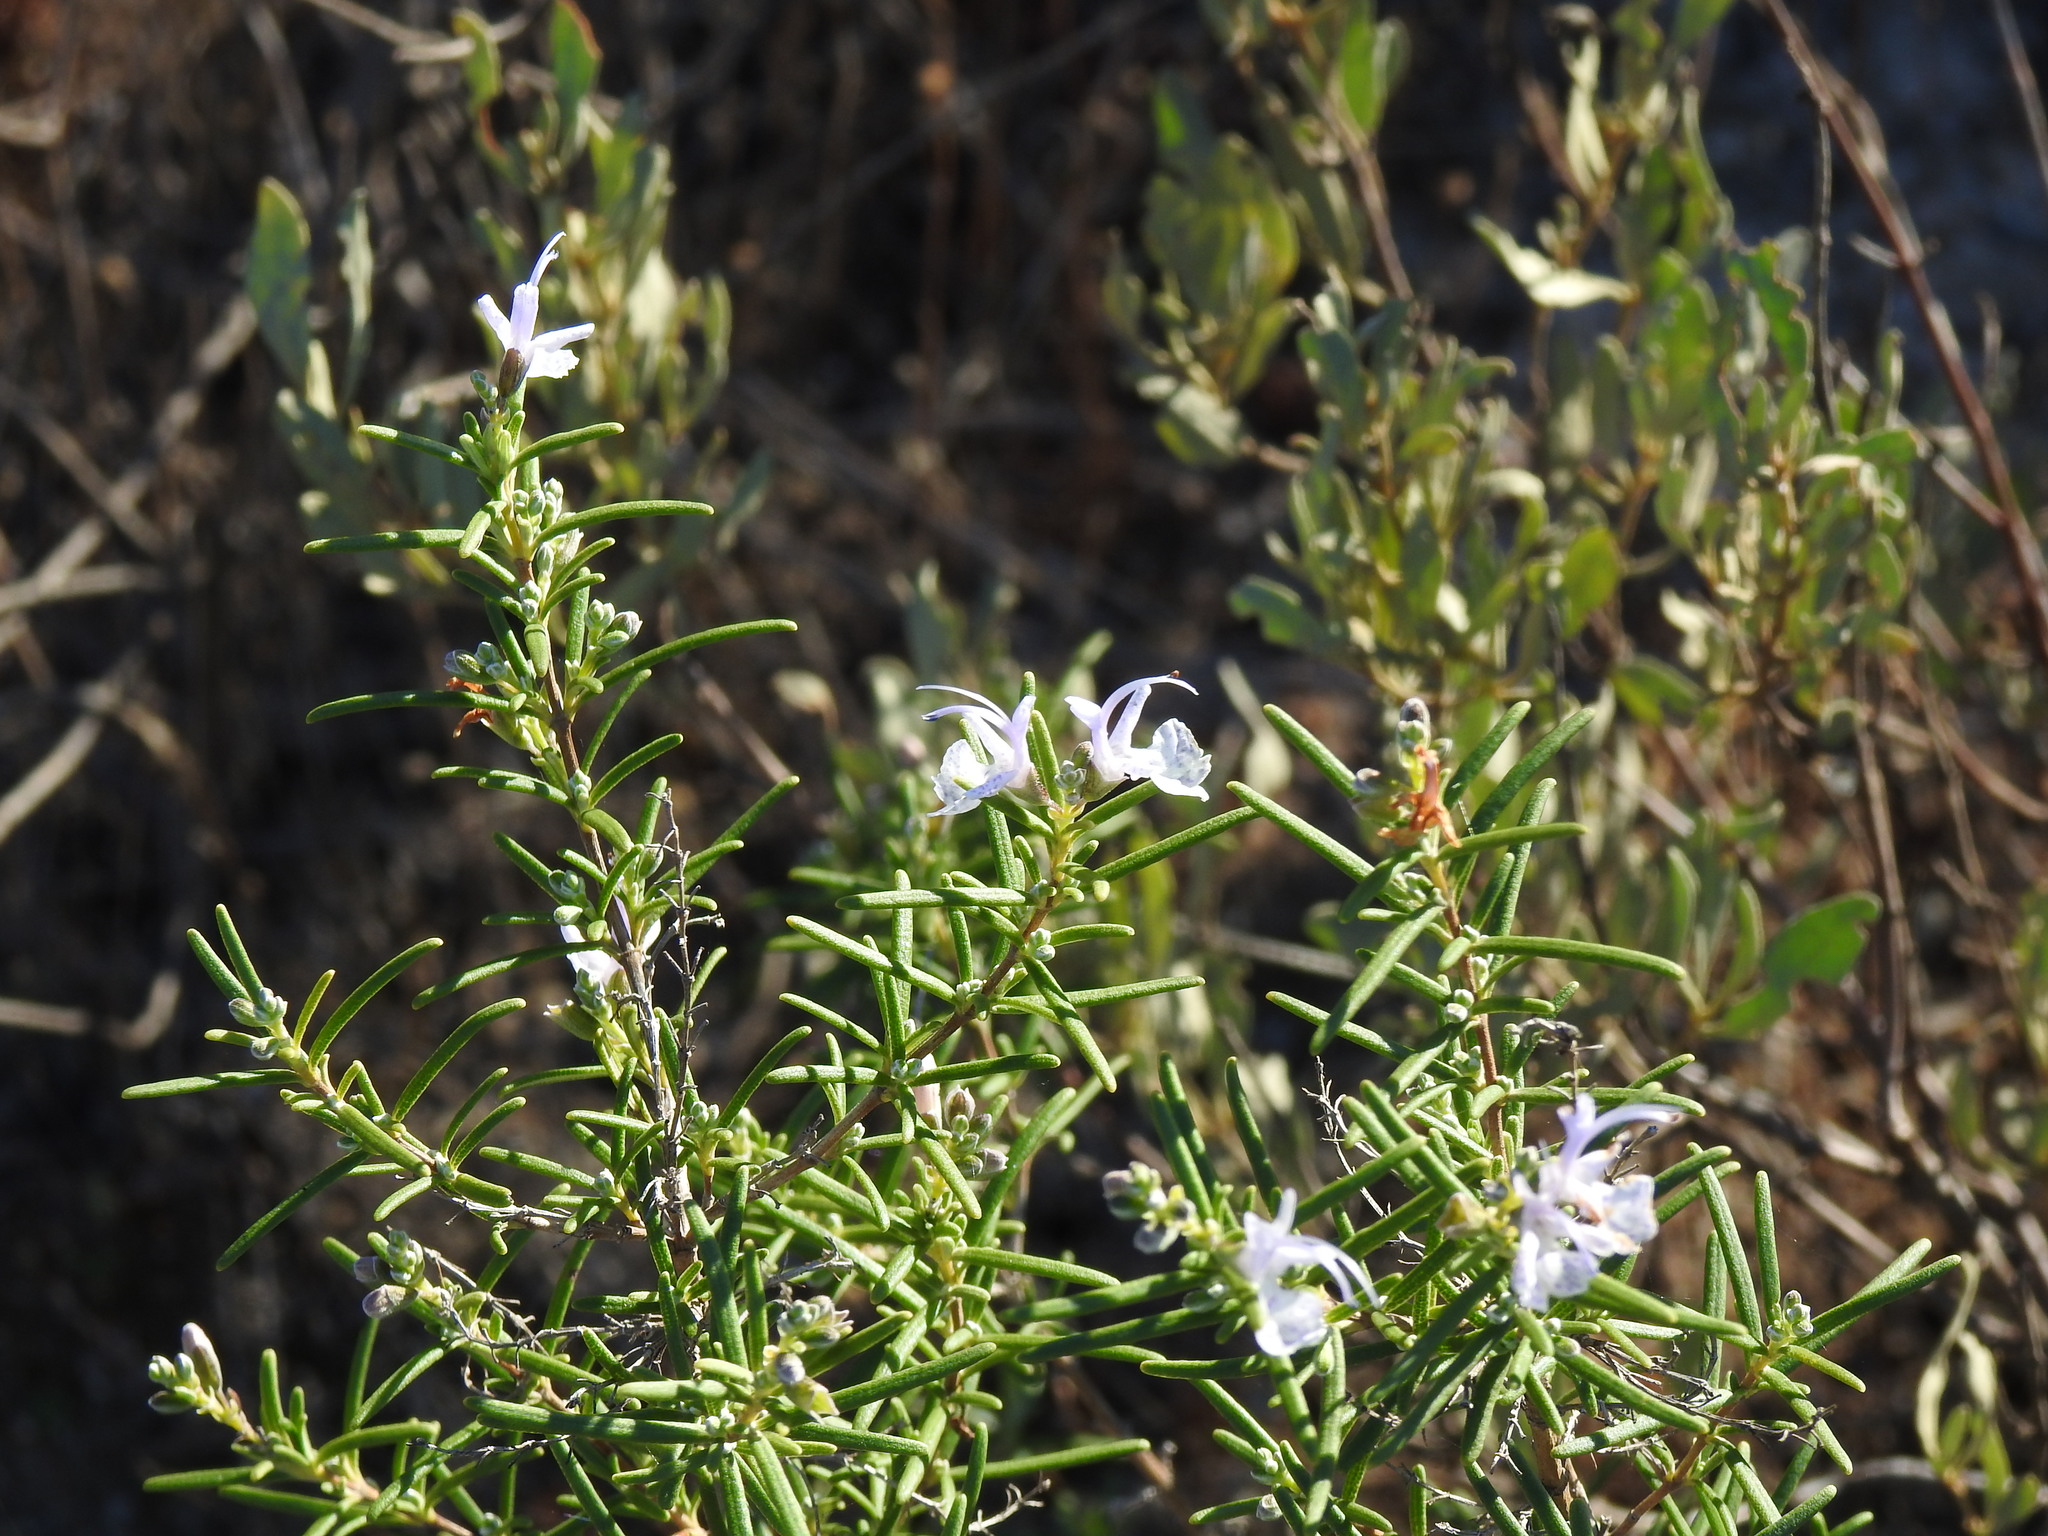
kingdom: Plantae
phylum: Tracheophyta
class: Magnoliopsida
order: Lamiales
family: Lamiaceae
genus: Salvia
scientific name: Salvia rosmarinus
